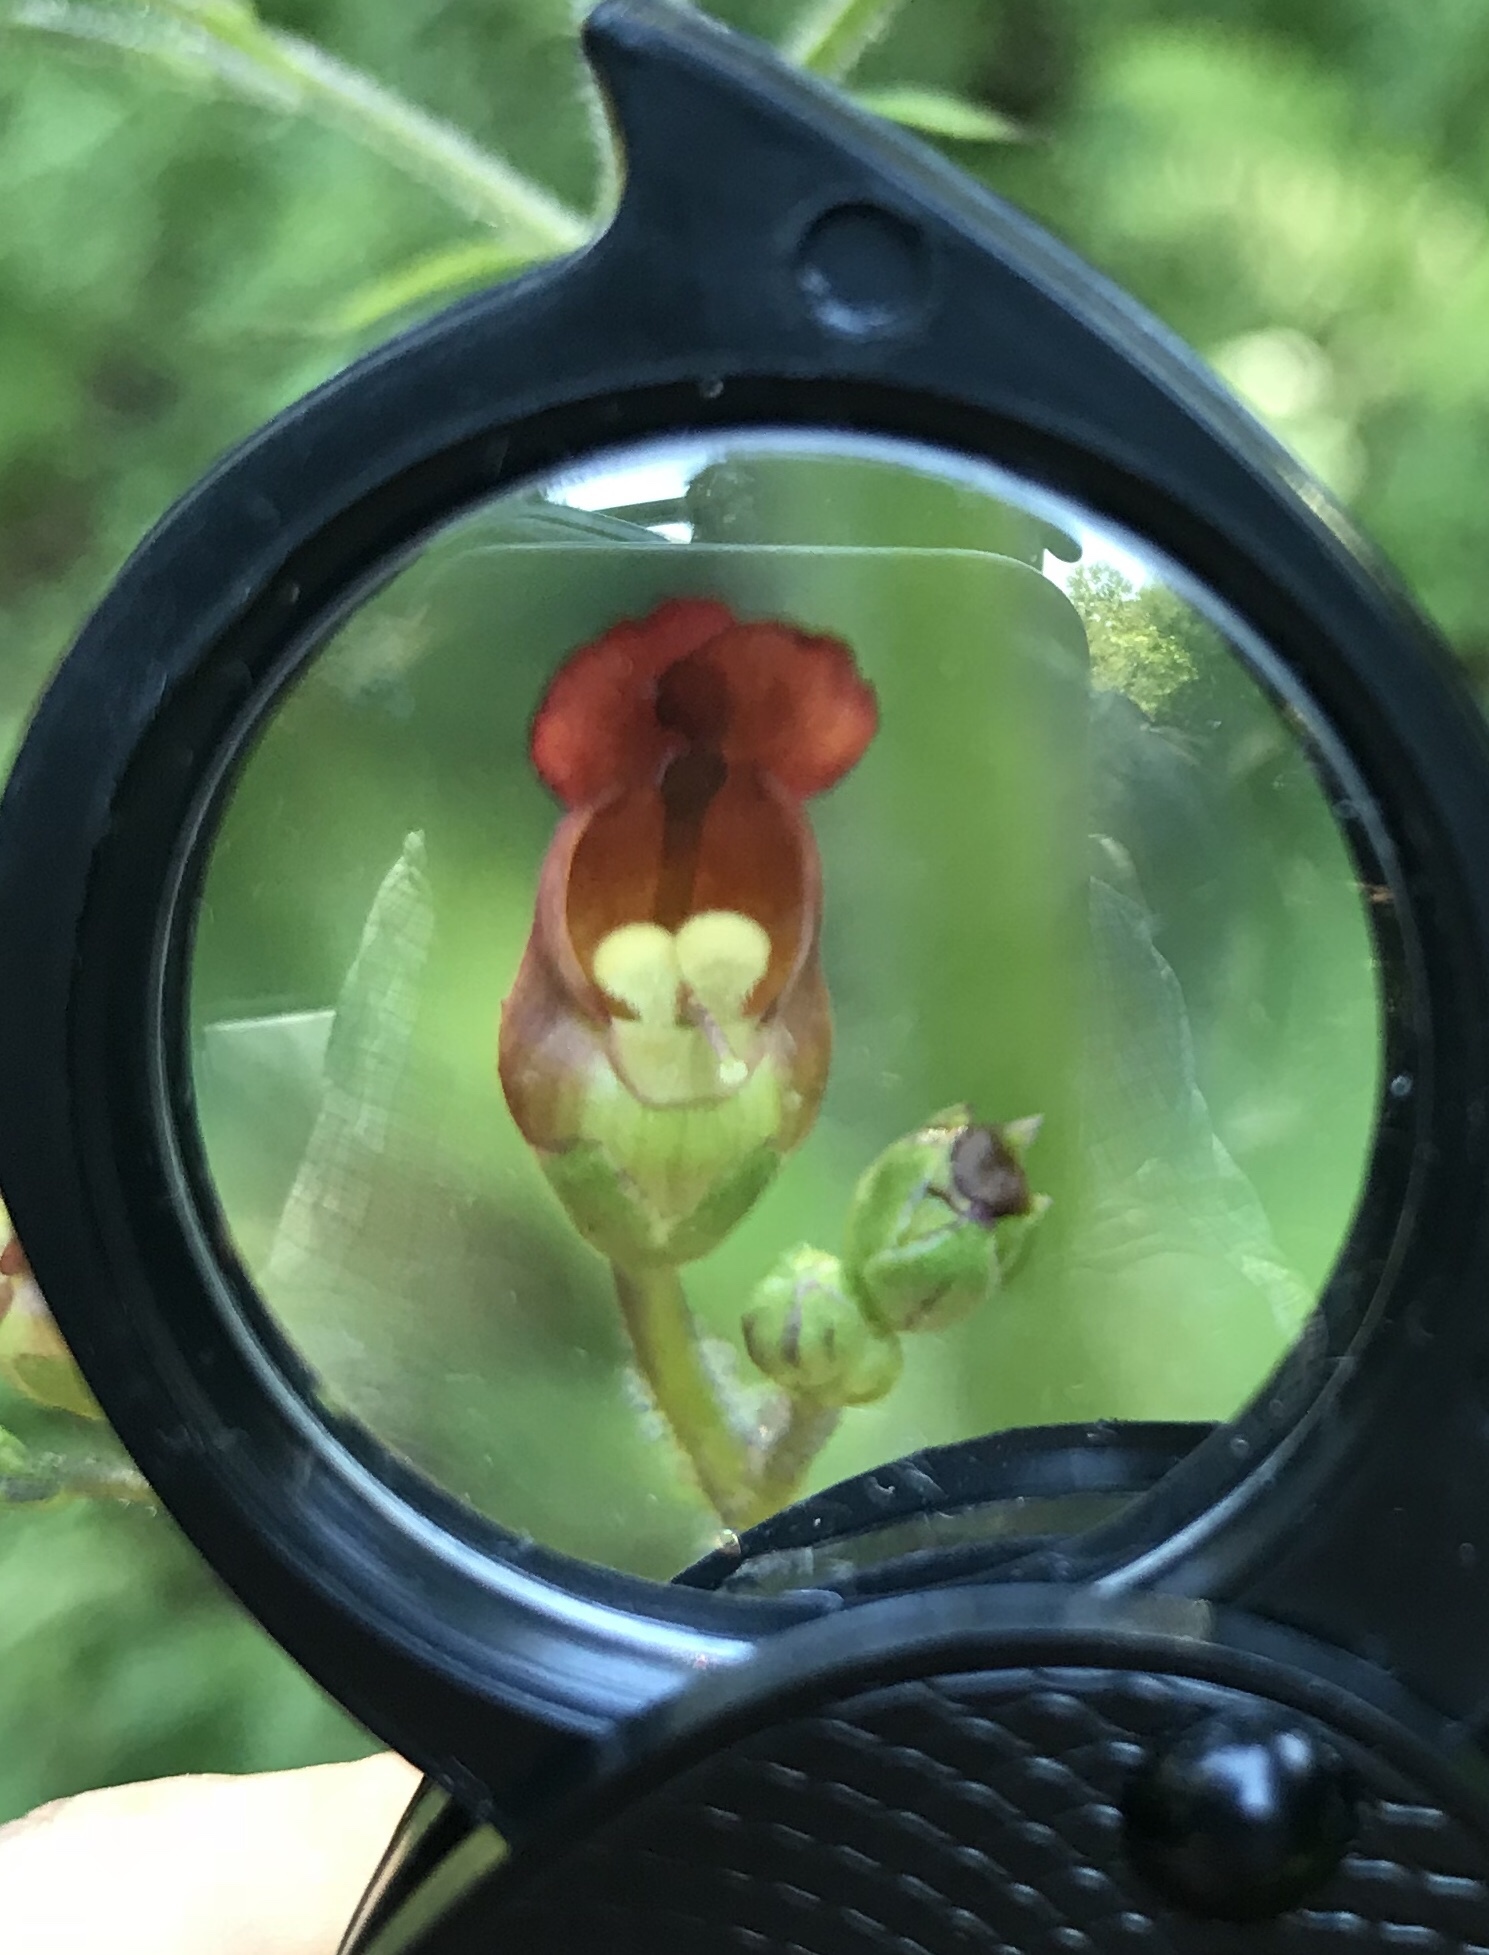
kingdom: Plantae
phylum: Tracheophyta
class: Magnoliopsida
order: Lamiales
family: Scrophulariaceae
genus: Scrophularia
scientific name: Scrophularia californica
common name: California figwort
